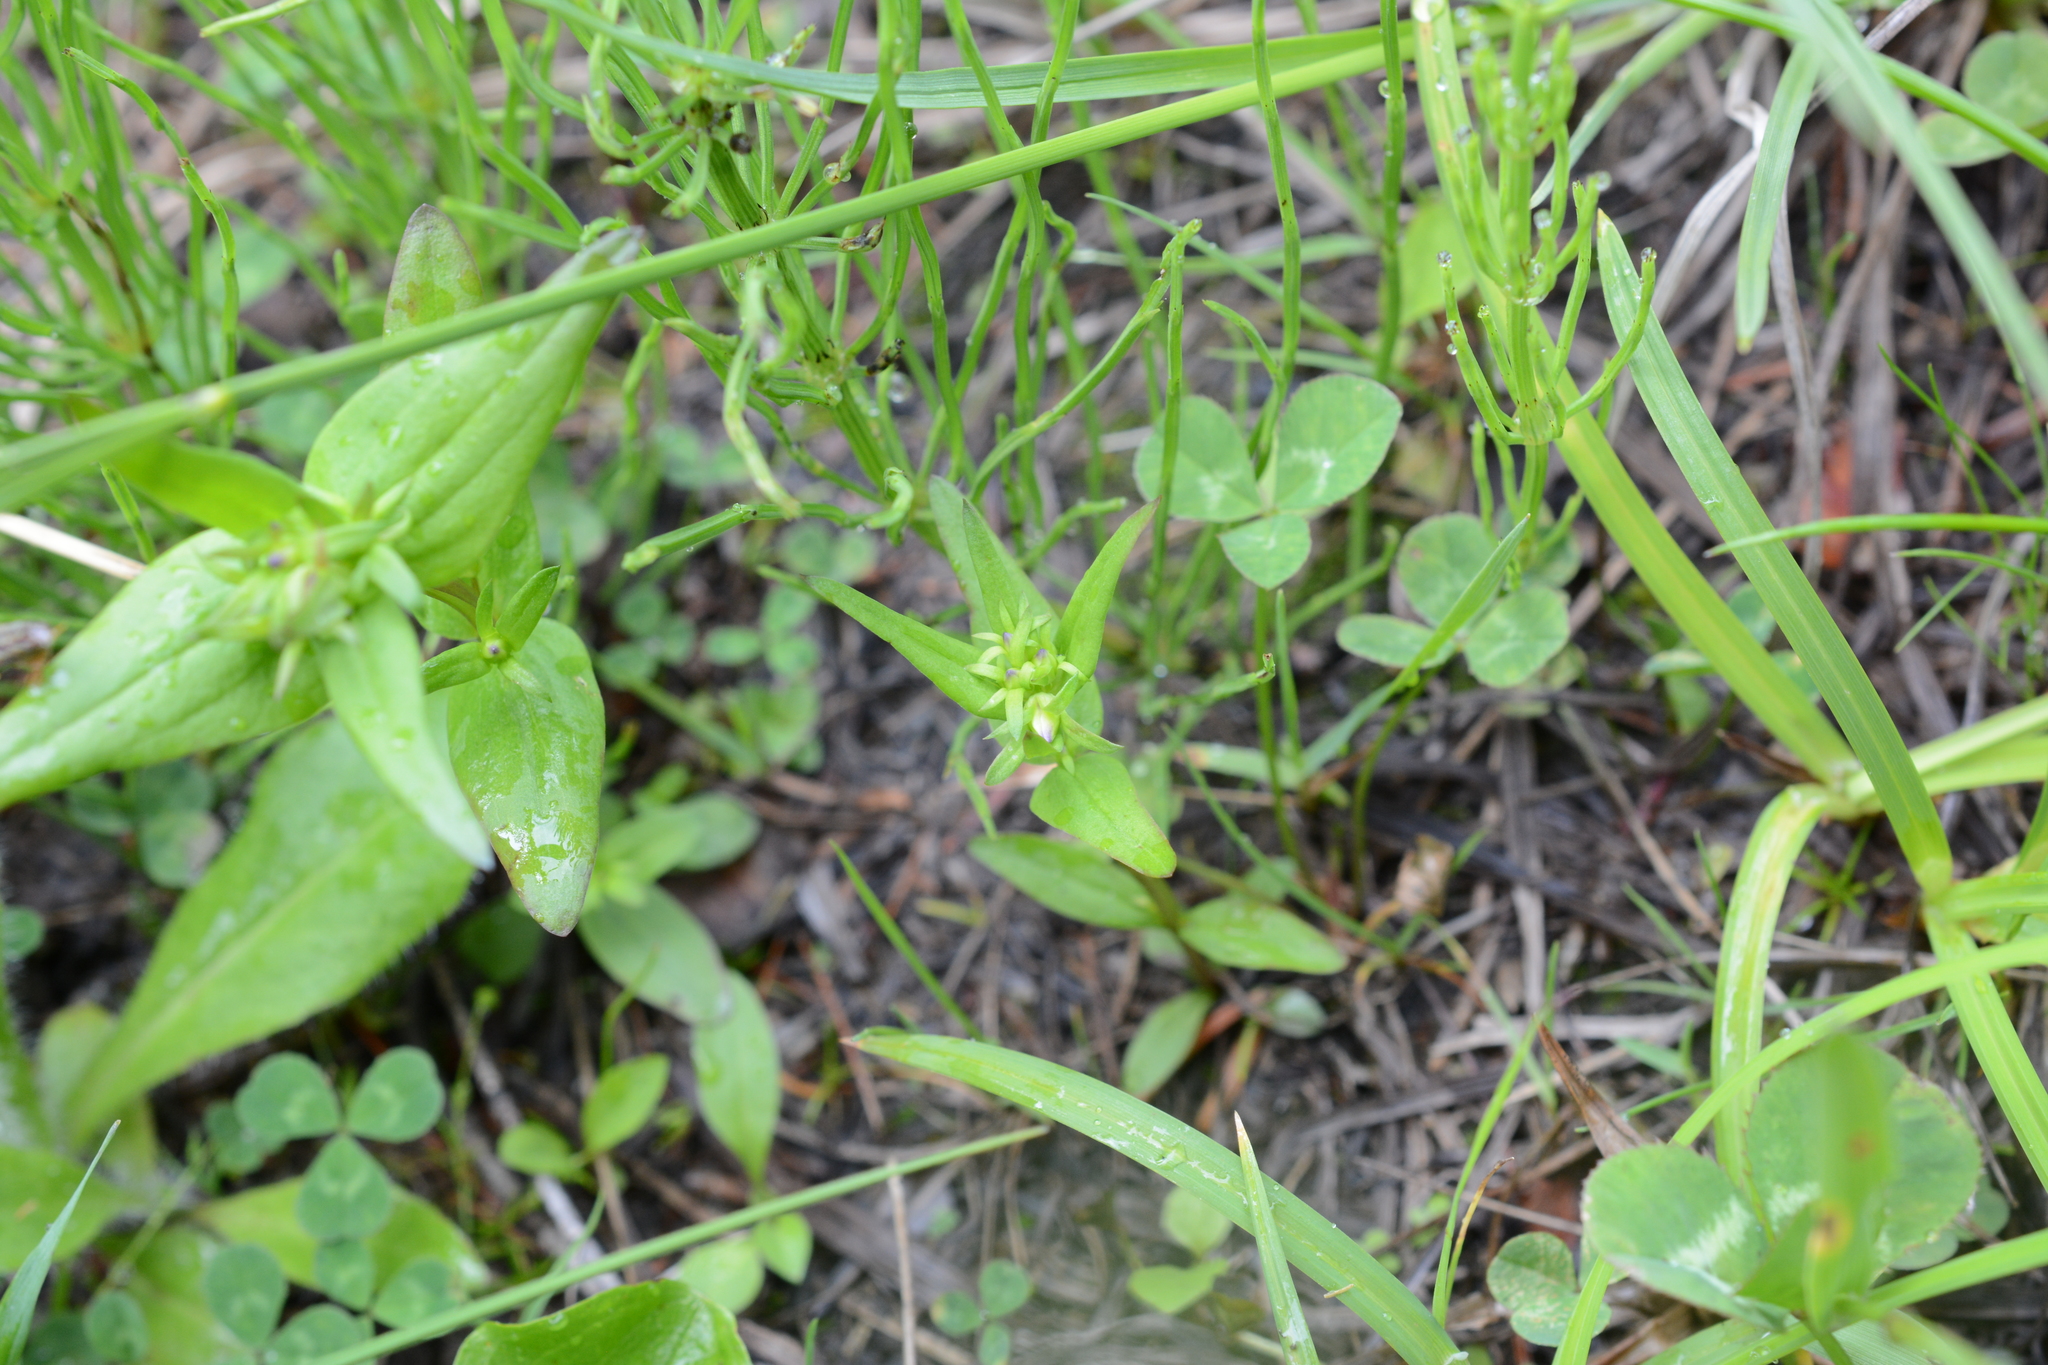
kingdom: Plantae
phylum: Tracheophyta
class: Magnoliopsida
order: Lamiales
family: Plantaginaceae
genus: Collinsia
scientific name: Collinsia parviflora
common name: Blue-lips
